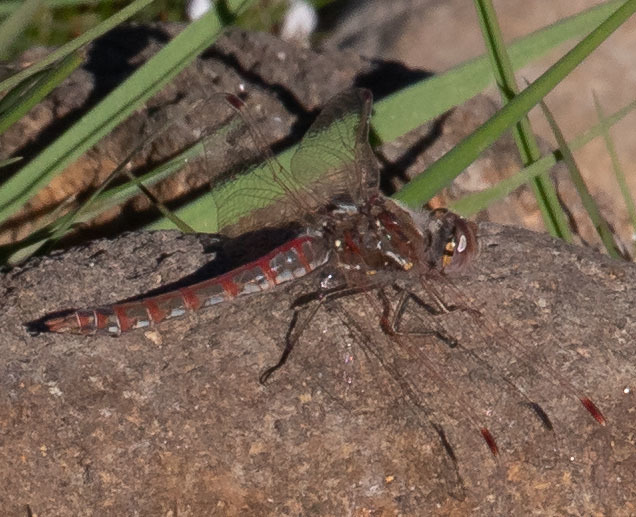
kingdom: Animalia
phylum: Arthropoda
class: Insecta
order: Odonata
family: Libellulidae
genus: Sympetrum
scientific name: Sympetrum corruptum
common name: Variegated meadowhawk
